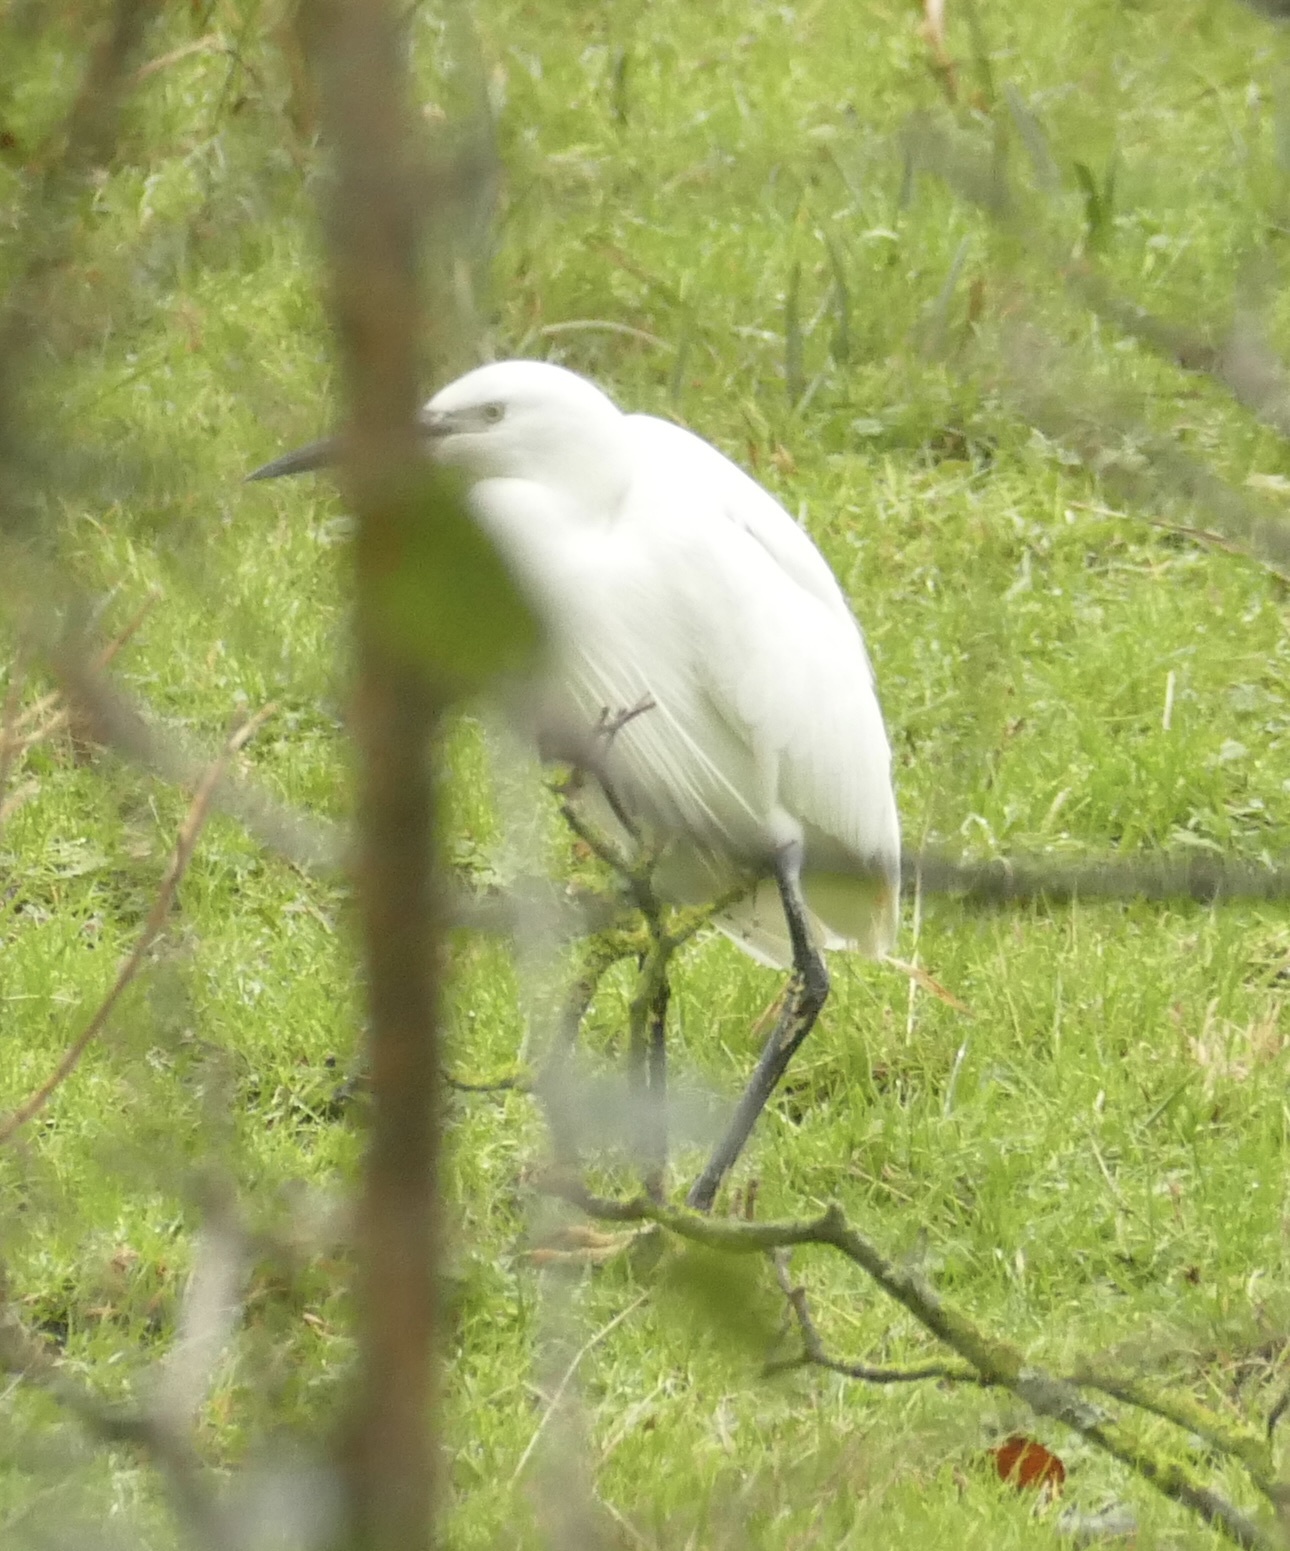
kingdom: Animalia
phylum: Chordata
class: Aves
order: Pelecaniformes
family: Ardeidae
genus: Egretta
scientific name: Egretta garzetta
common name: Little egret
